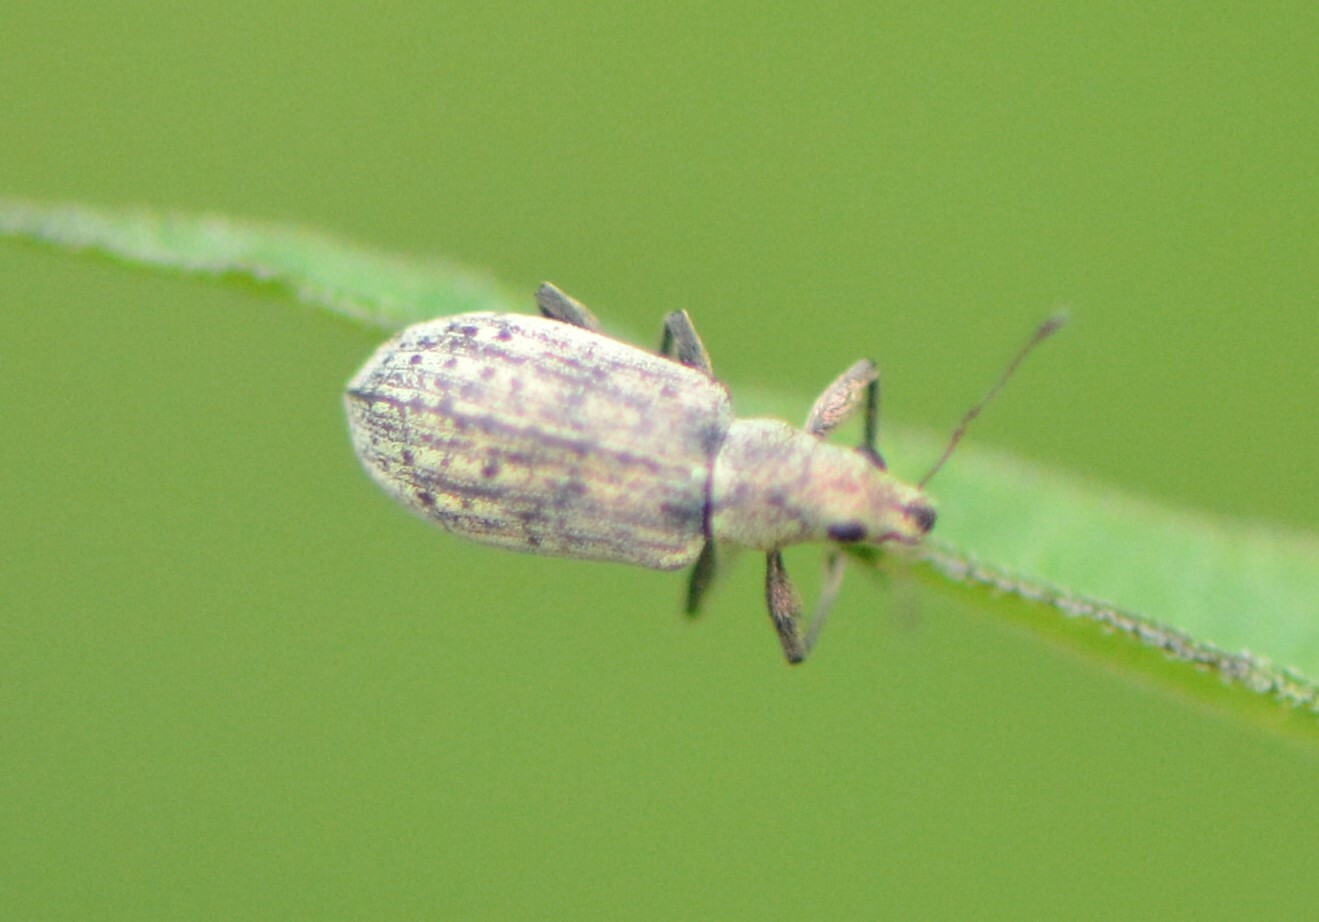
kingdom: Animalia
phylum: Arthropoda
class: Insecta
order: Coleoptera
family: Curculionidae
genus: Polydrusus
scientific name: Polydrusus cervinus
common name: Weevil
